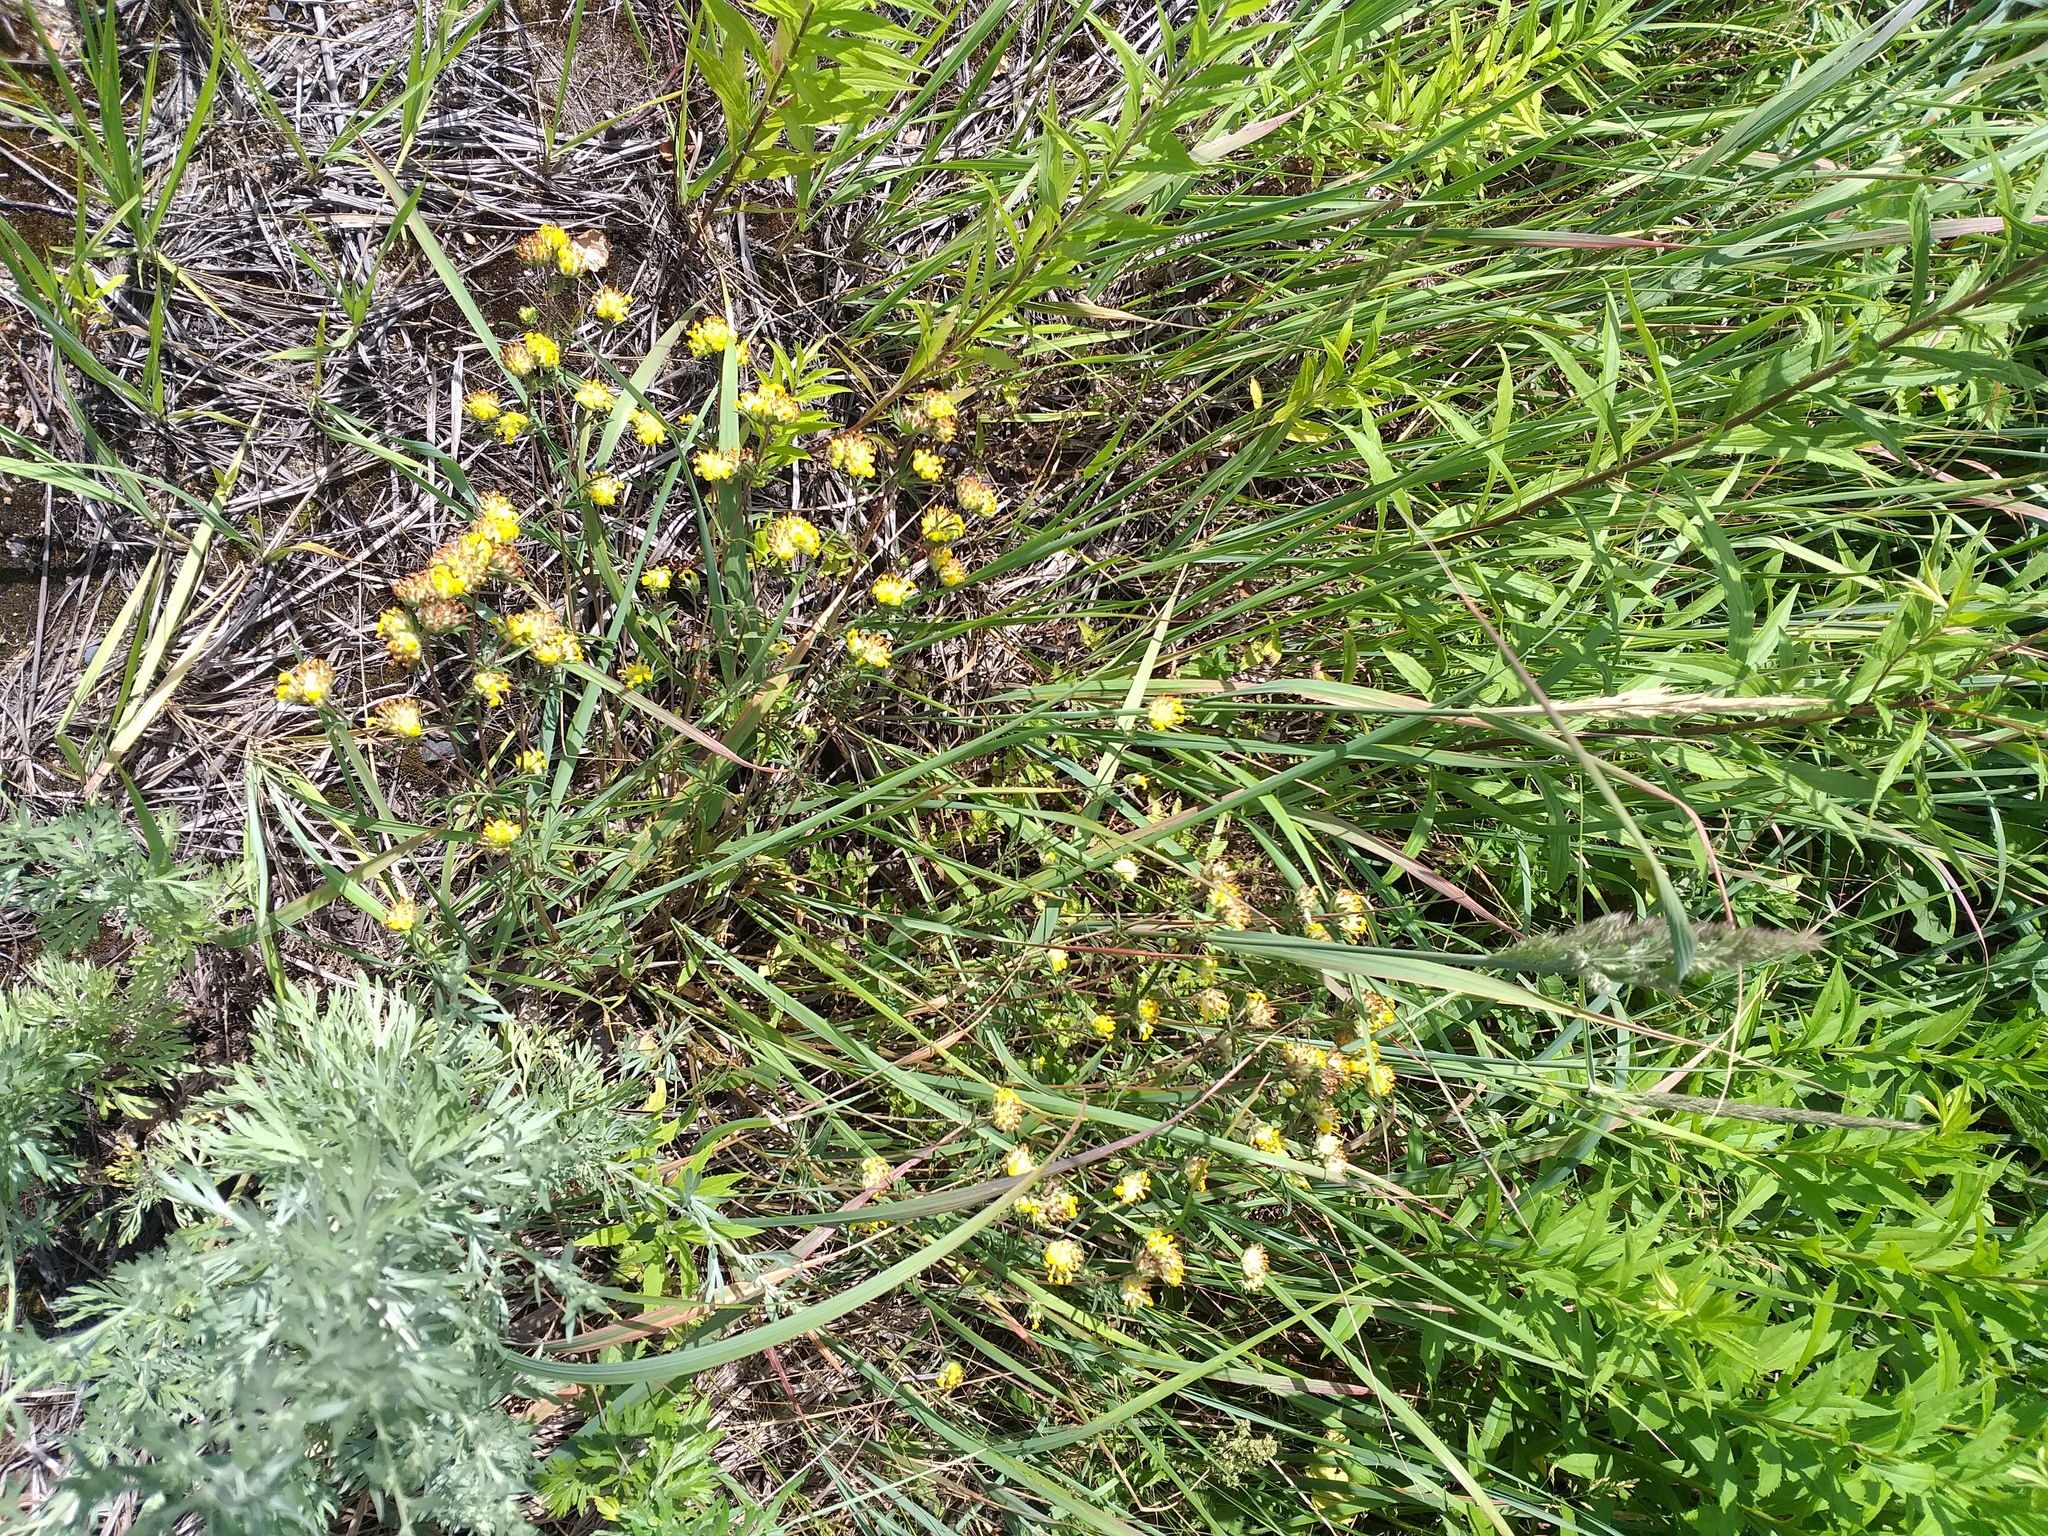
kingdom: Plantae
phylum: Tracheophyta
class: Magnoliopsida
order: Fabales
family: Fabaceae
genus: Anthyllis
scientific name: Anthyllis vulneraria
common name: Kidney vetch
